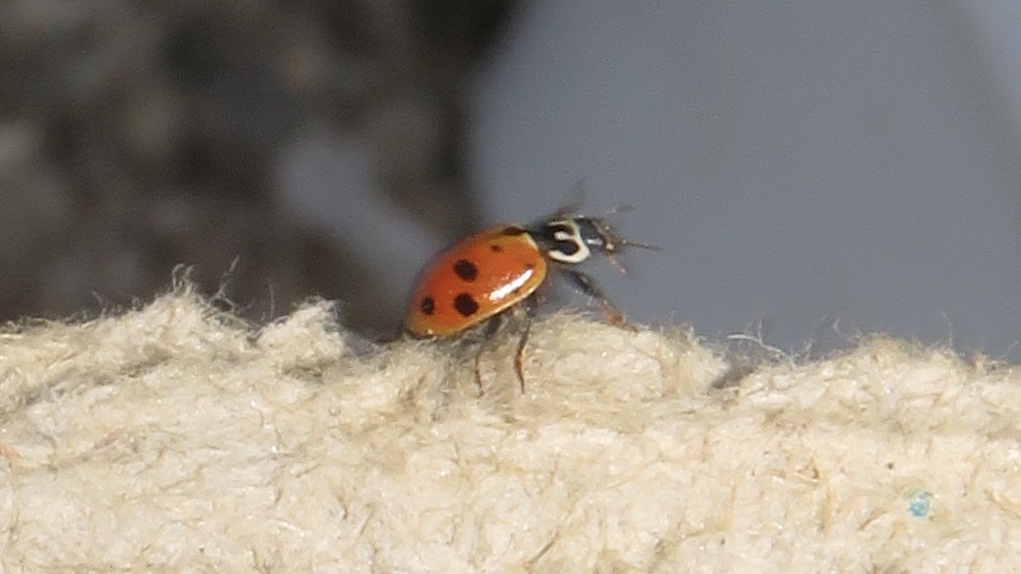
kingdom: Animalia
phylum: Arthropoda
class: Insecta
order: Coleoptera
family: Coccinellidae
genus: Hippodamia
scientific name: Hippodamia variegata
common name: Ladybird beetle
